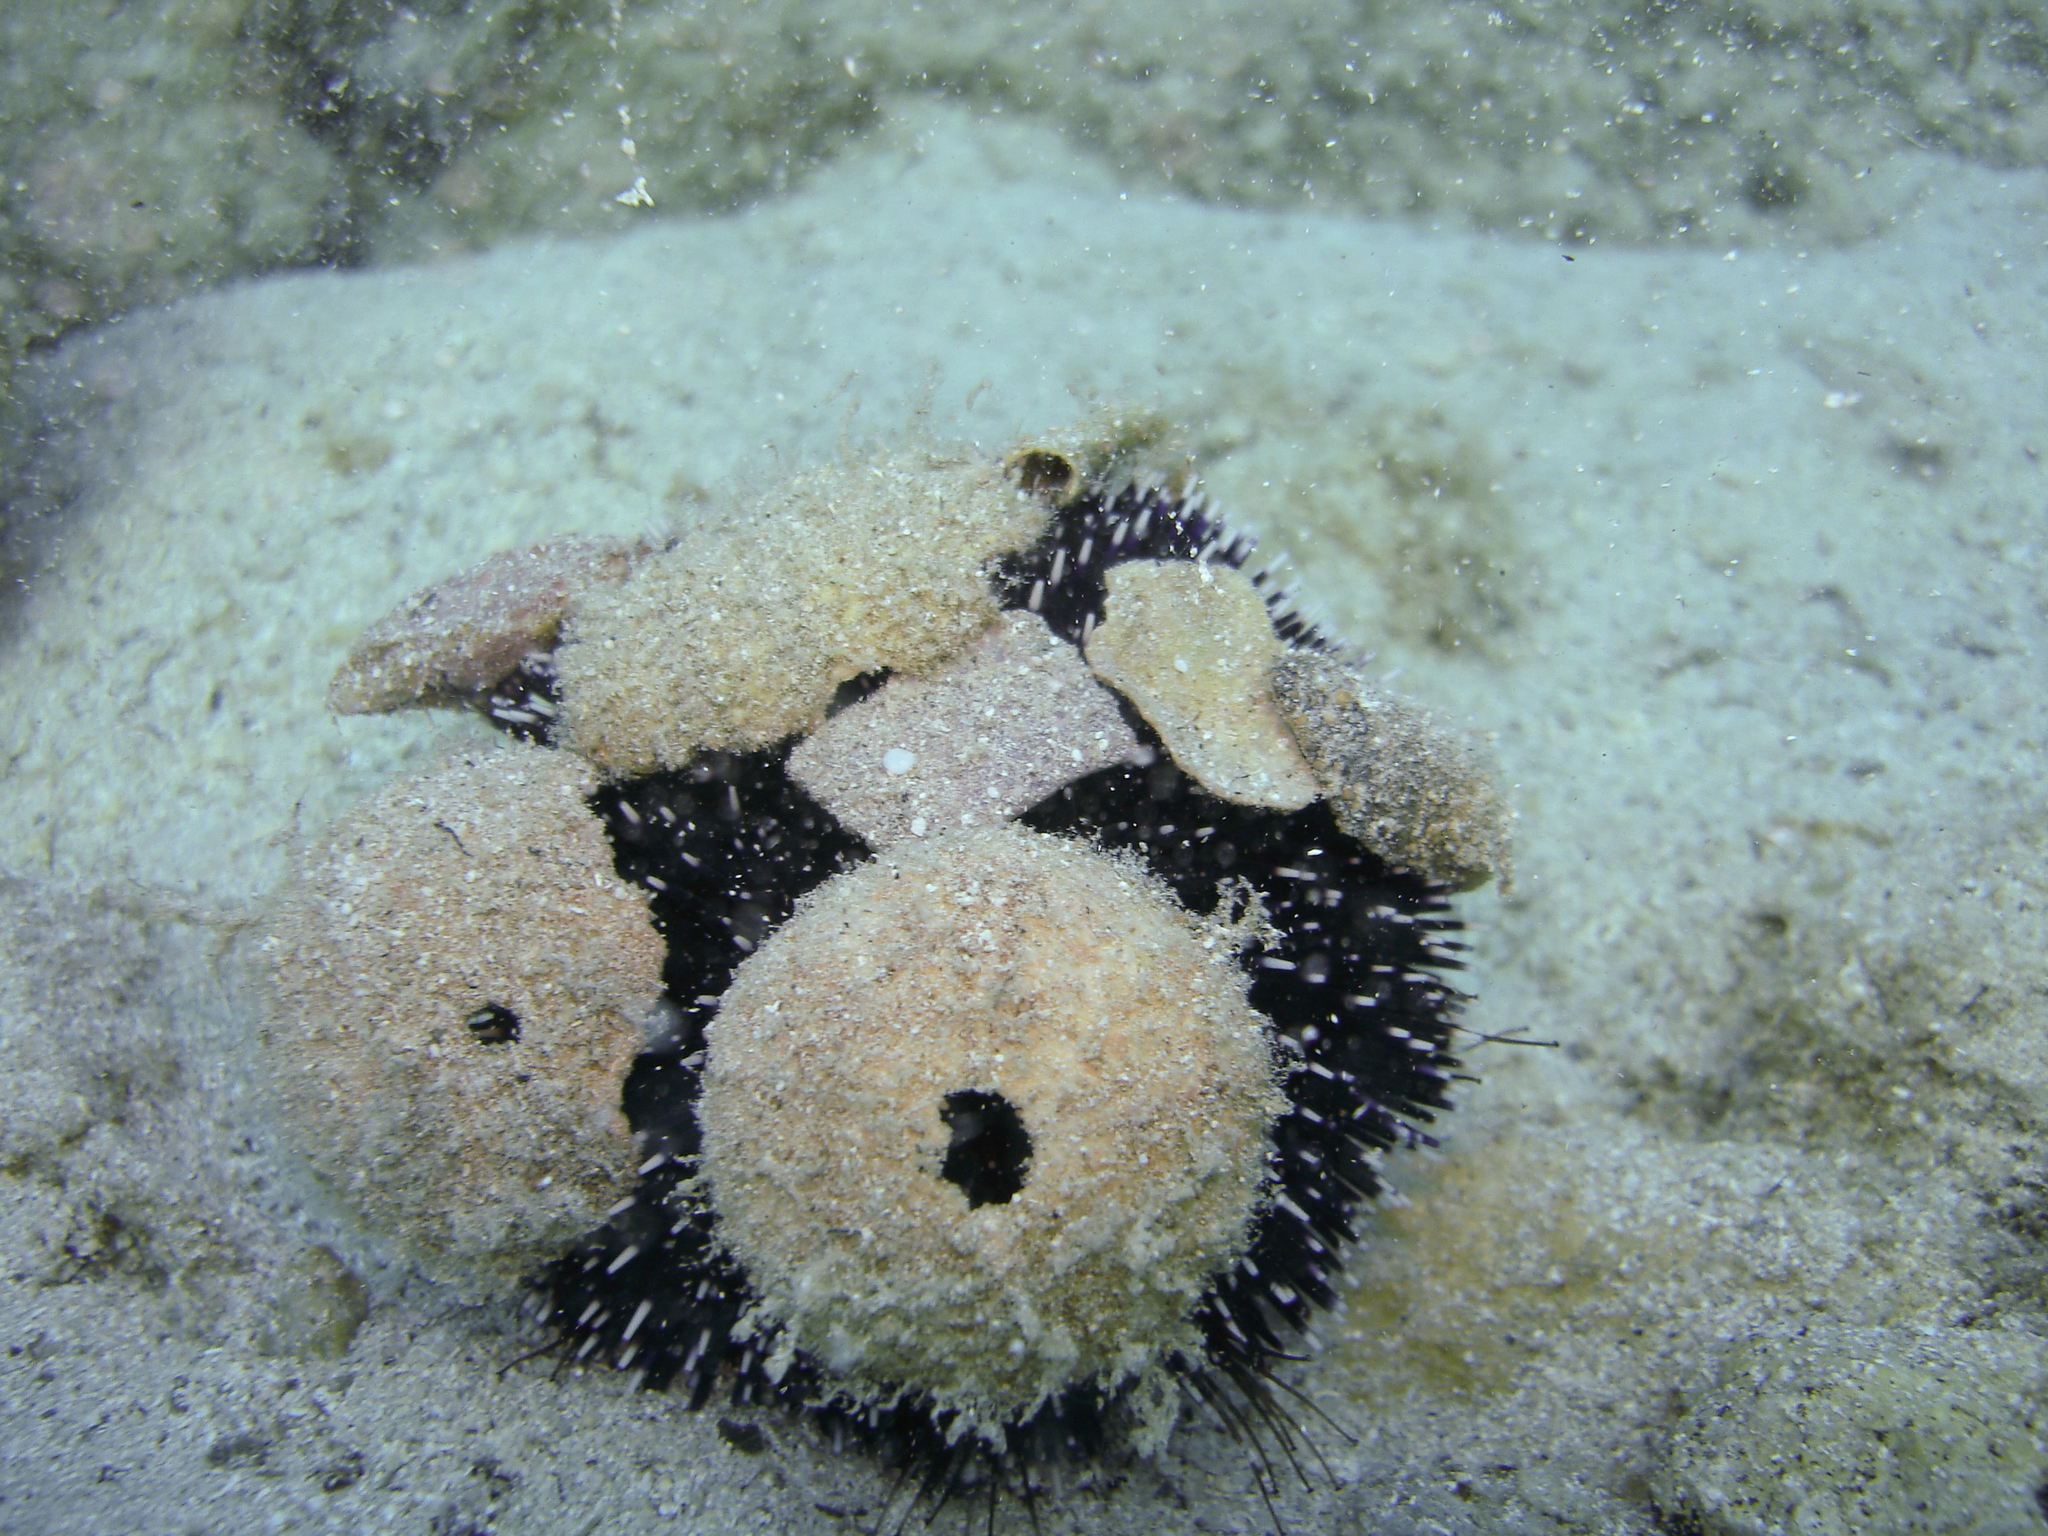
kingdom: Animalia
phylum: Echinodermata
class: Echinoidea
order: Camarodonta
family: Toxopneustidae
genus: Sphaerechinus
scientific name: Sphaerechinus granularis
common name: Violet sea urchin
